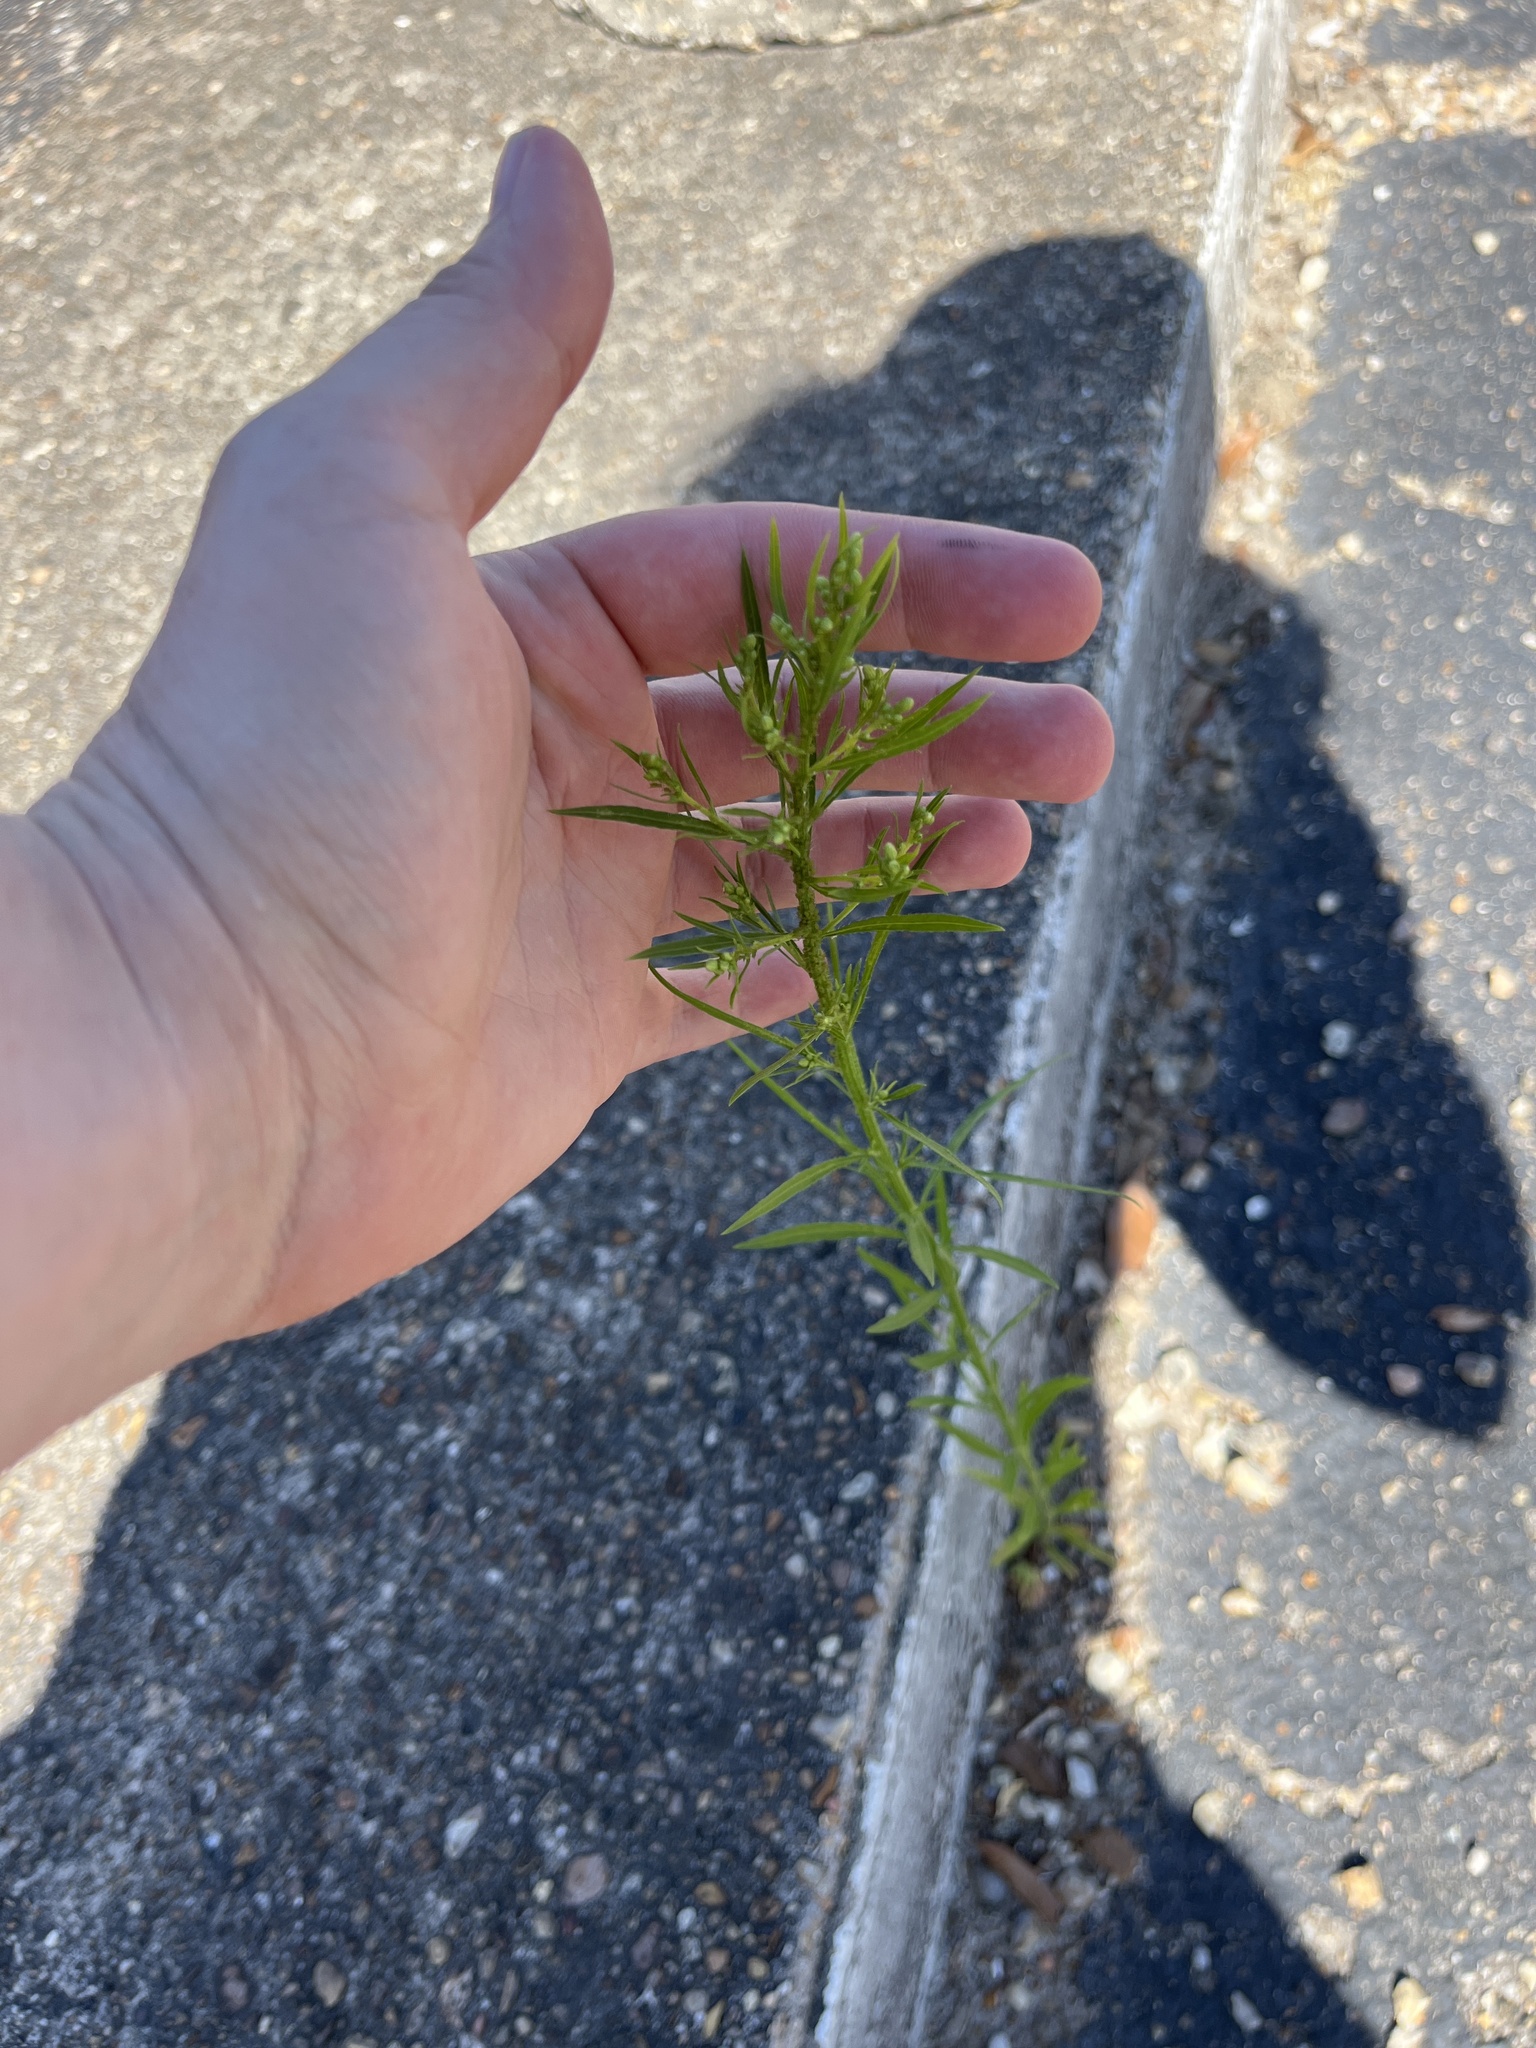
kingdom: Plantae
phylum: Tracheophyta
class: Magnoliopsida
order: Asterales
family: Asteraceae
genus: Erigeron
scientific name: Erigeron canadensis
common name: Canadian fleabane
